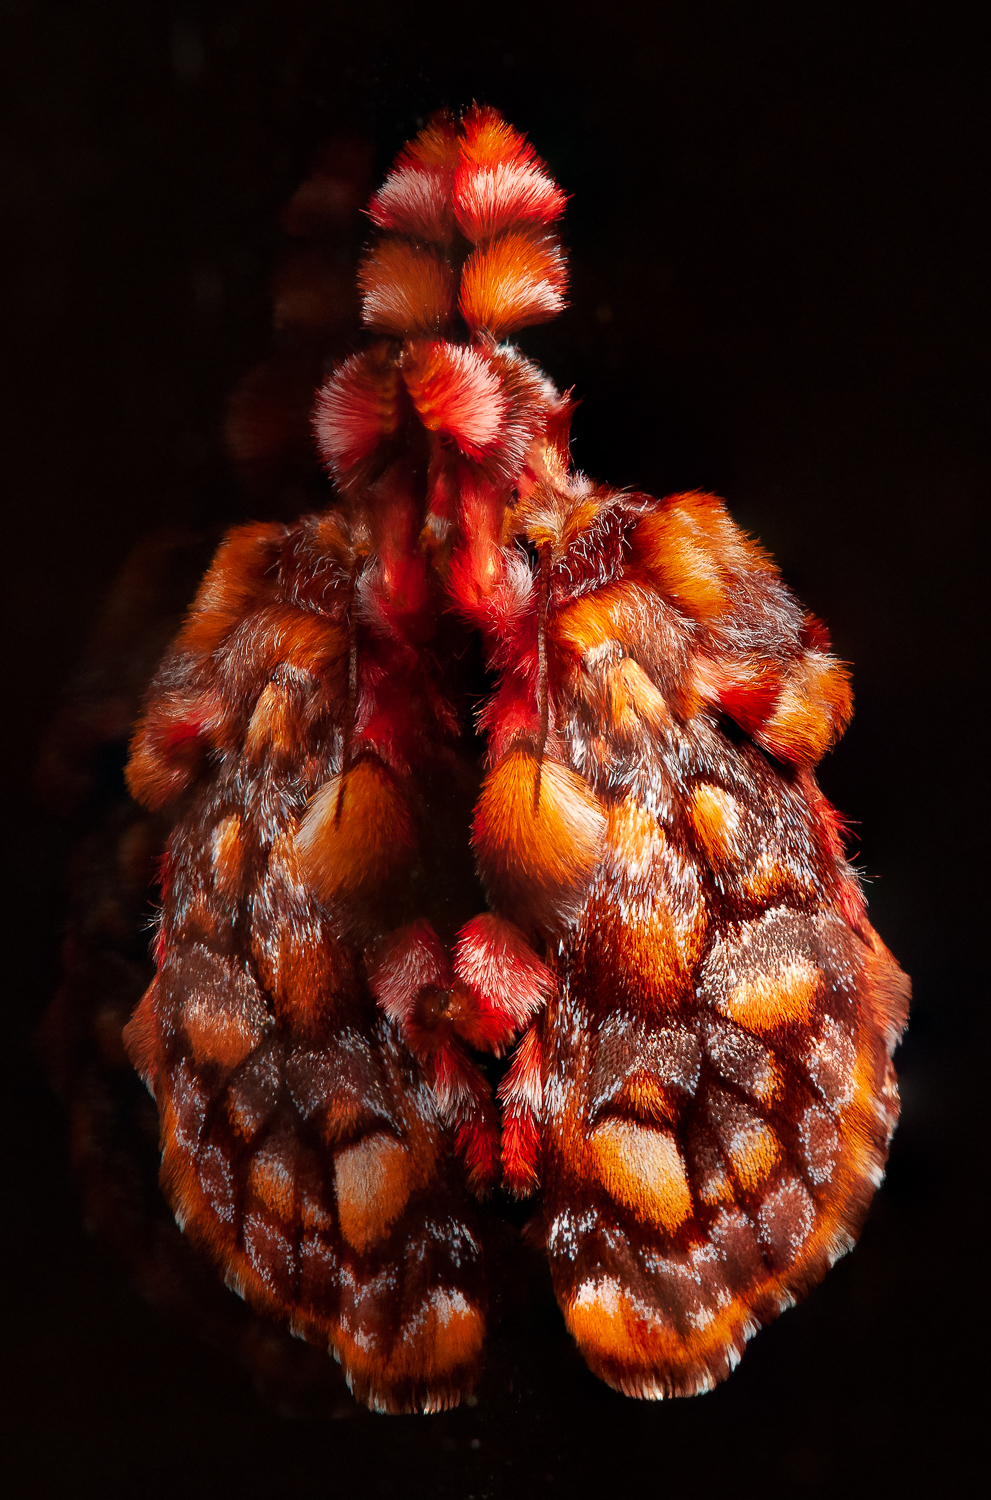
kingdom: Animalia
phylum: Arthropoda
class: Insecta
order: Lepidoptera
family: Limacodidae
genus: Phobetron
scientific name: Phobetron hipparchia
